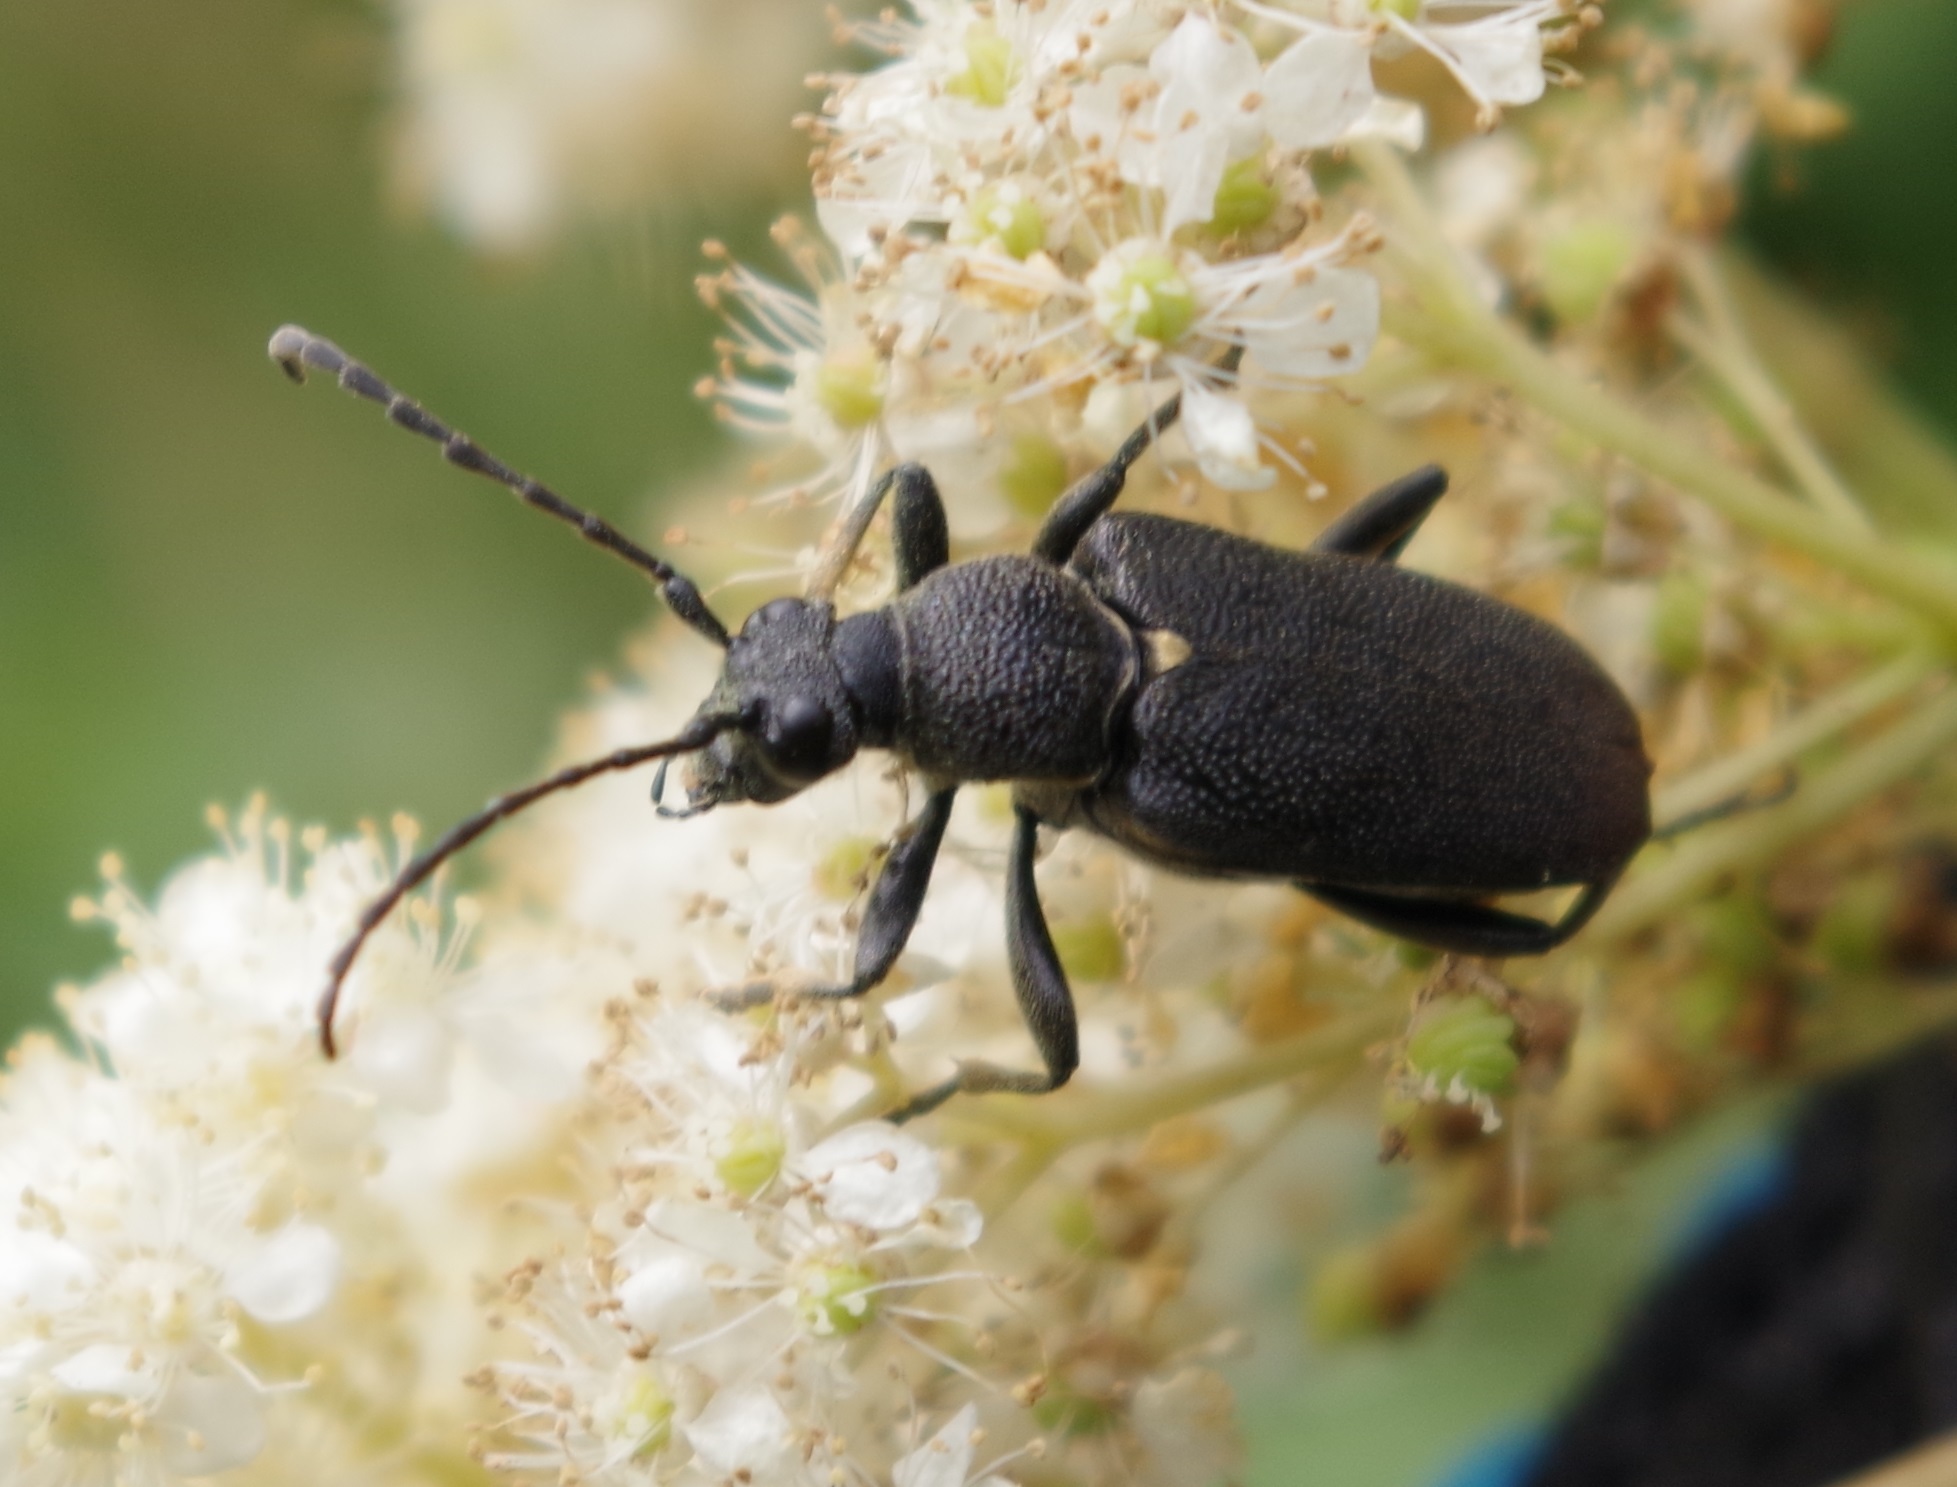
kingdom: Animalia
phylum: Arthropoda
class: Insecta
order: Coleoptera
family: Cerambycidae
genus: Stictoleptura
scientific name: Stictoleptura scutellata
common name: Large black longhorn beetle
